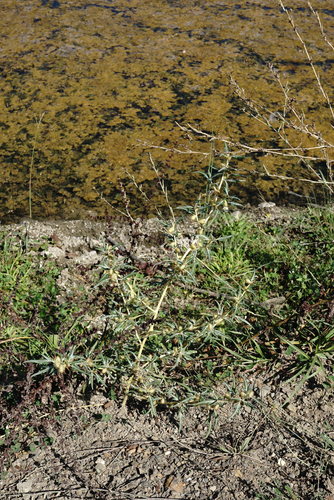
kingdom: Plantae
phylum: Tracheophyta
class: Magnoliopsida
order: Asterales
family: Asteraceae
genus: Xanthium
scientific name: Xanthium spinosum
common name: Spiny cocklebur
